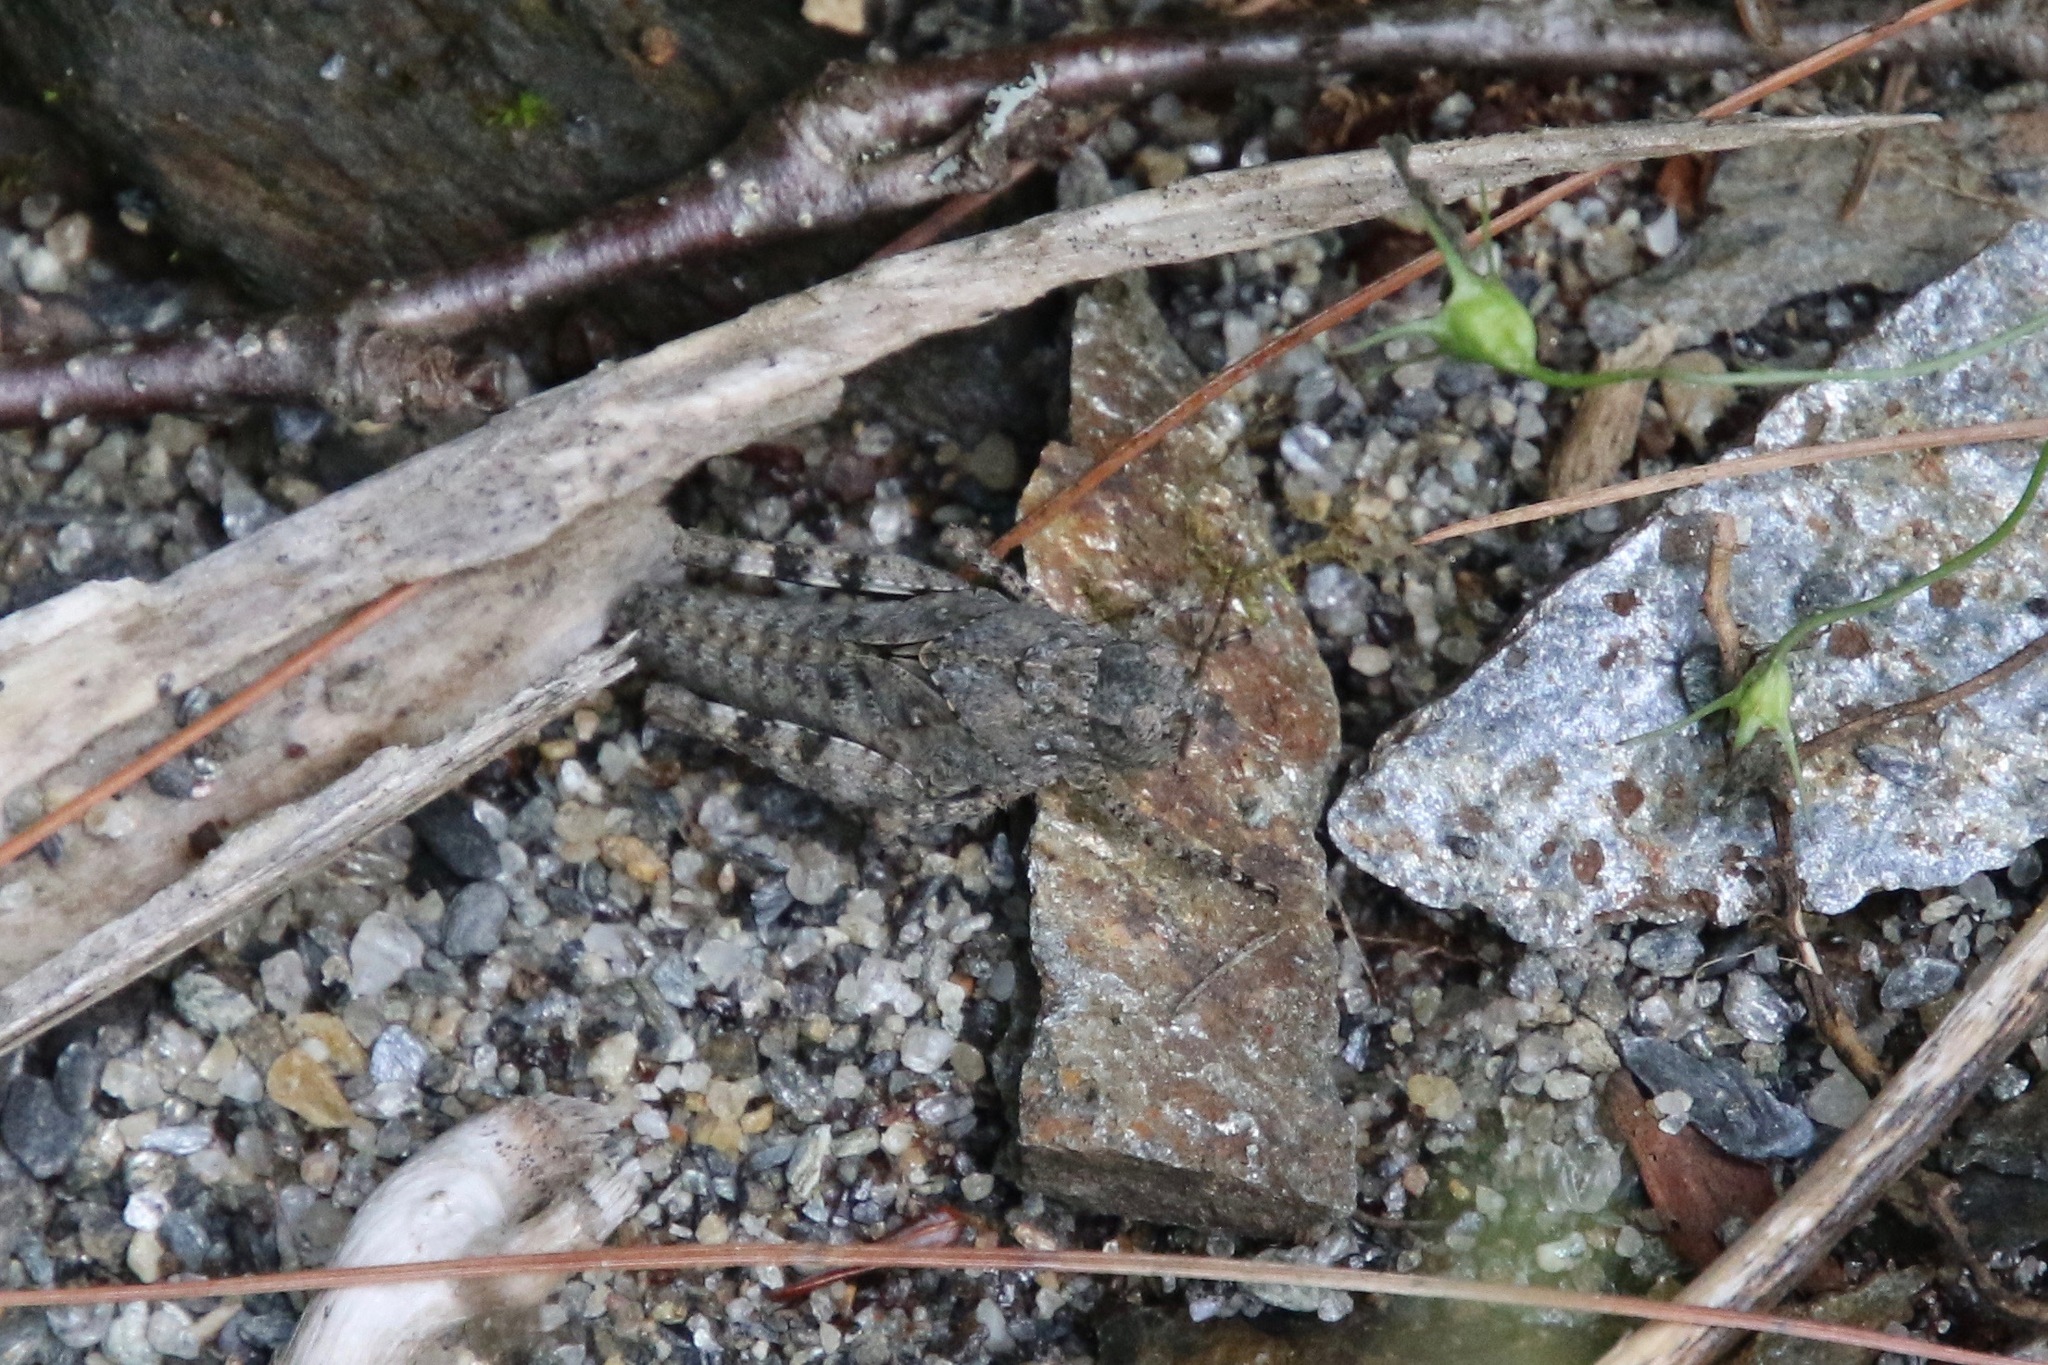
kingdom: Animalia
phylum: Arthropoda
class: Insecta
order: Orthoptera
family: Acrididae
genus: Dissosteira
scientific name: Dissosteira carolina
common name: Carolina grasshopper
